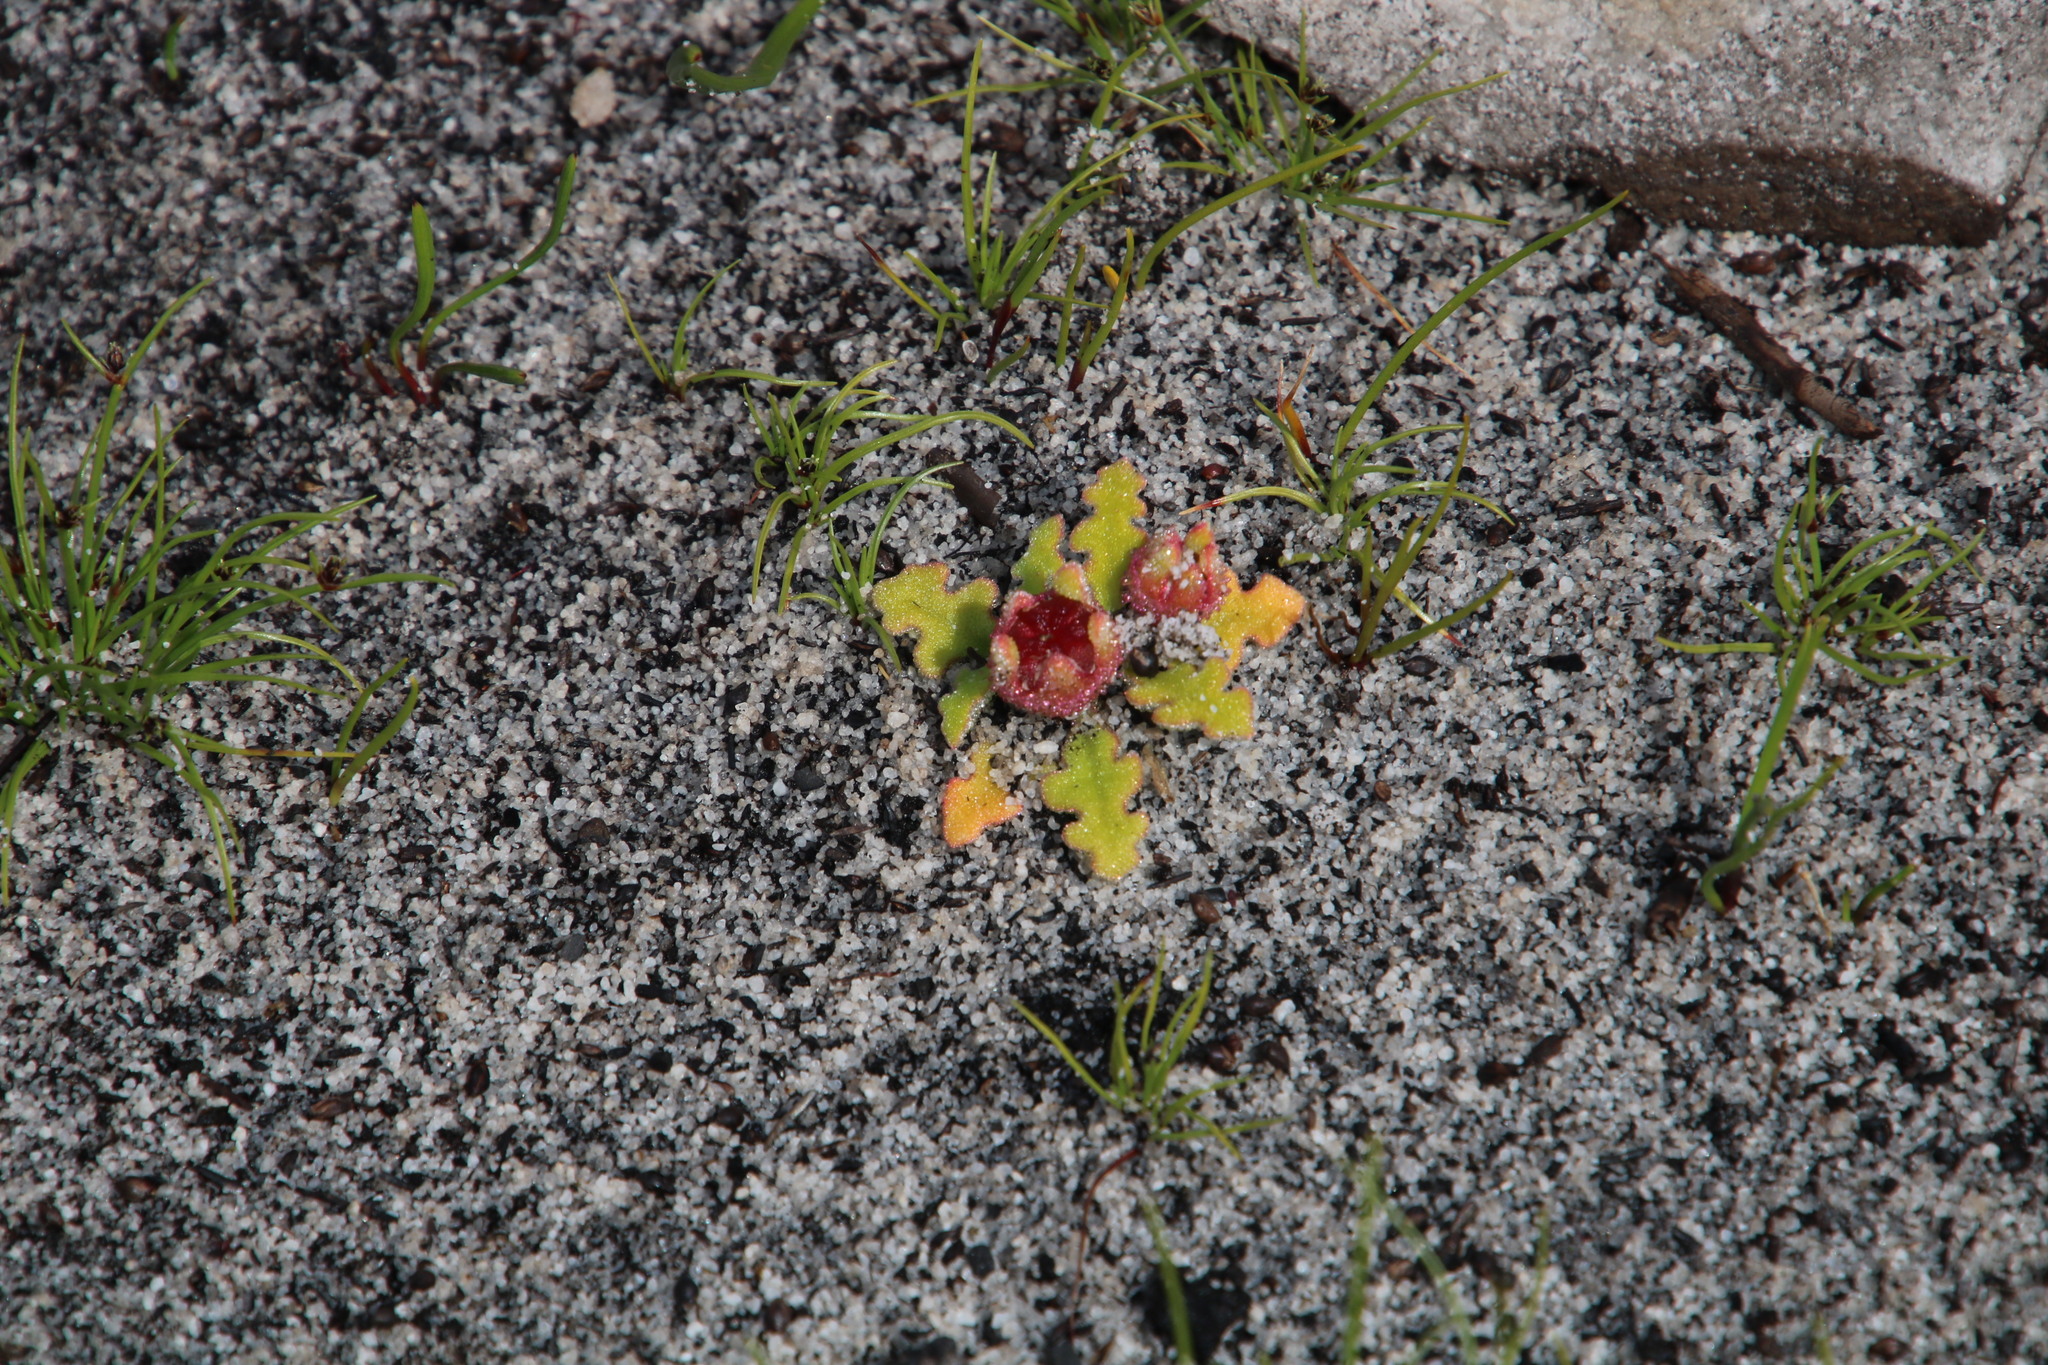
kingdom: Plantae
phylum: Tracheophyta
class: Magnoliopsida
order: Caryophyllales
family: Aizoaceae
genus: Cleretum
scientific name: Cleretum herrei
